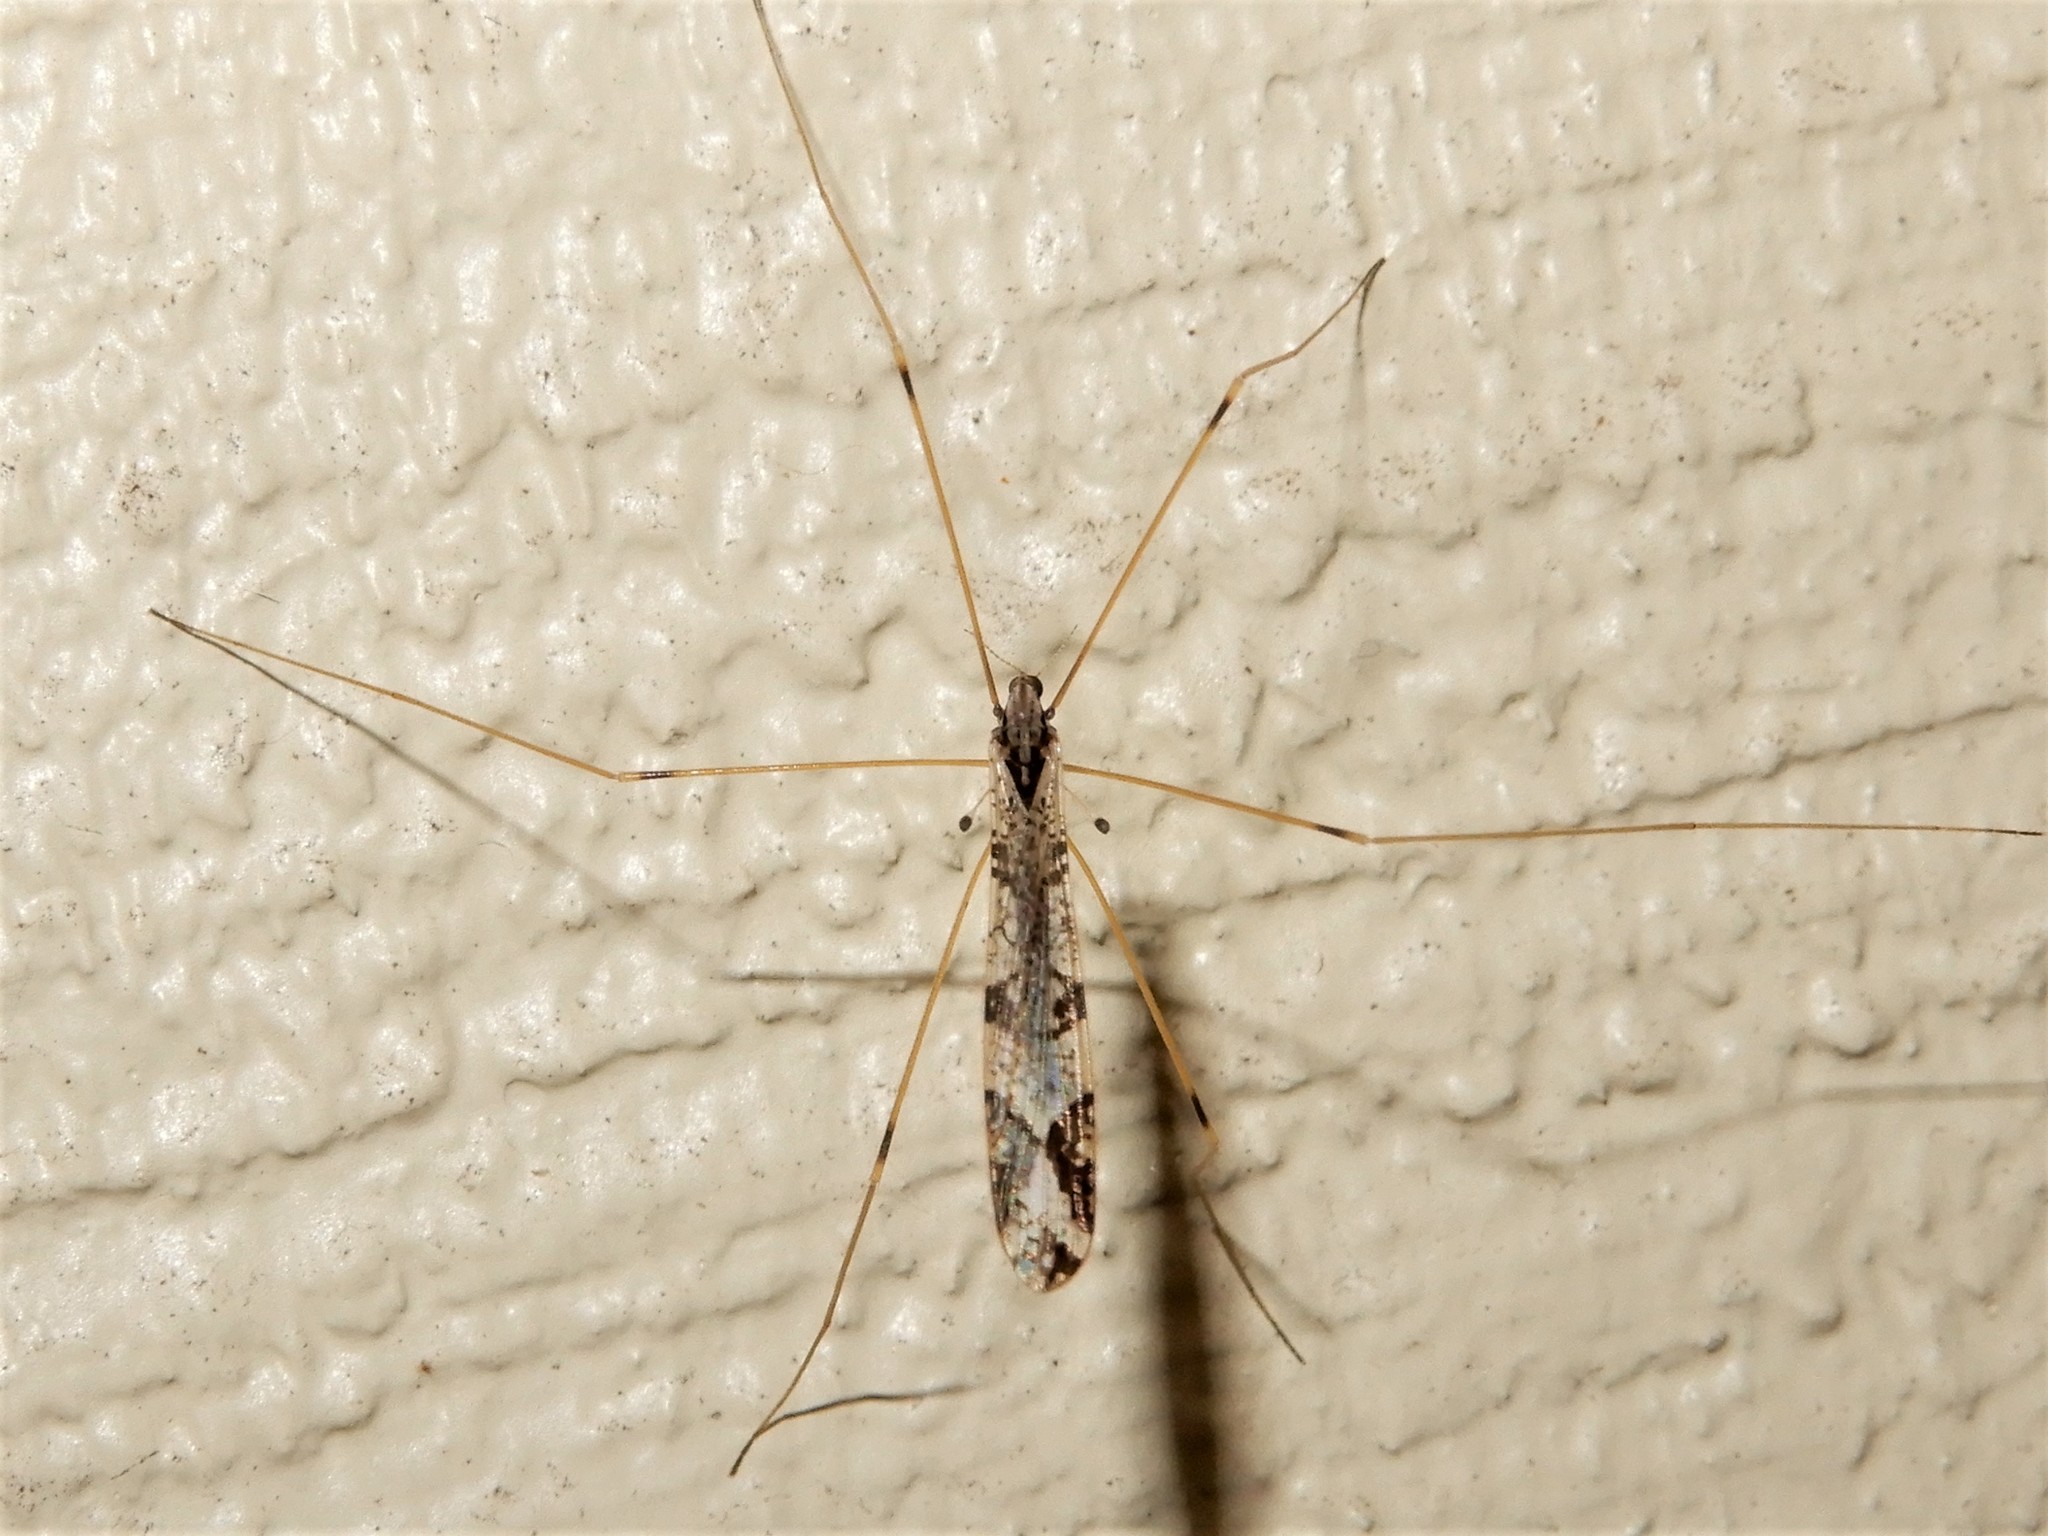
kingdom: Animalia
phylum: Arthropoda
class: Insecta
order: Diptera
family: Limoniidae
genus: Discobola
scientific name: Discobola striata
